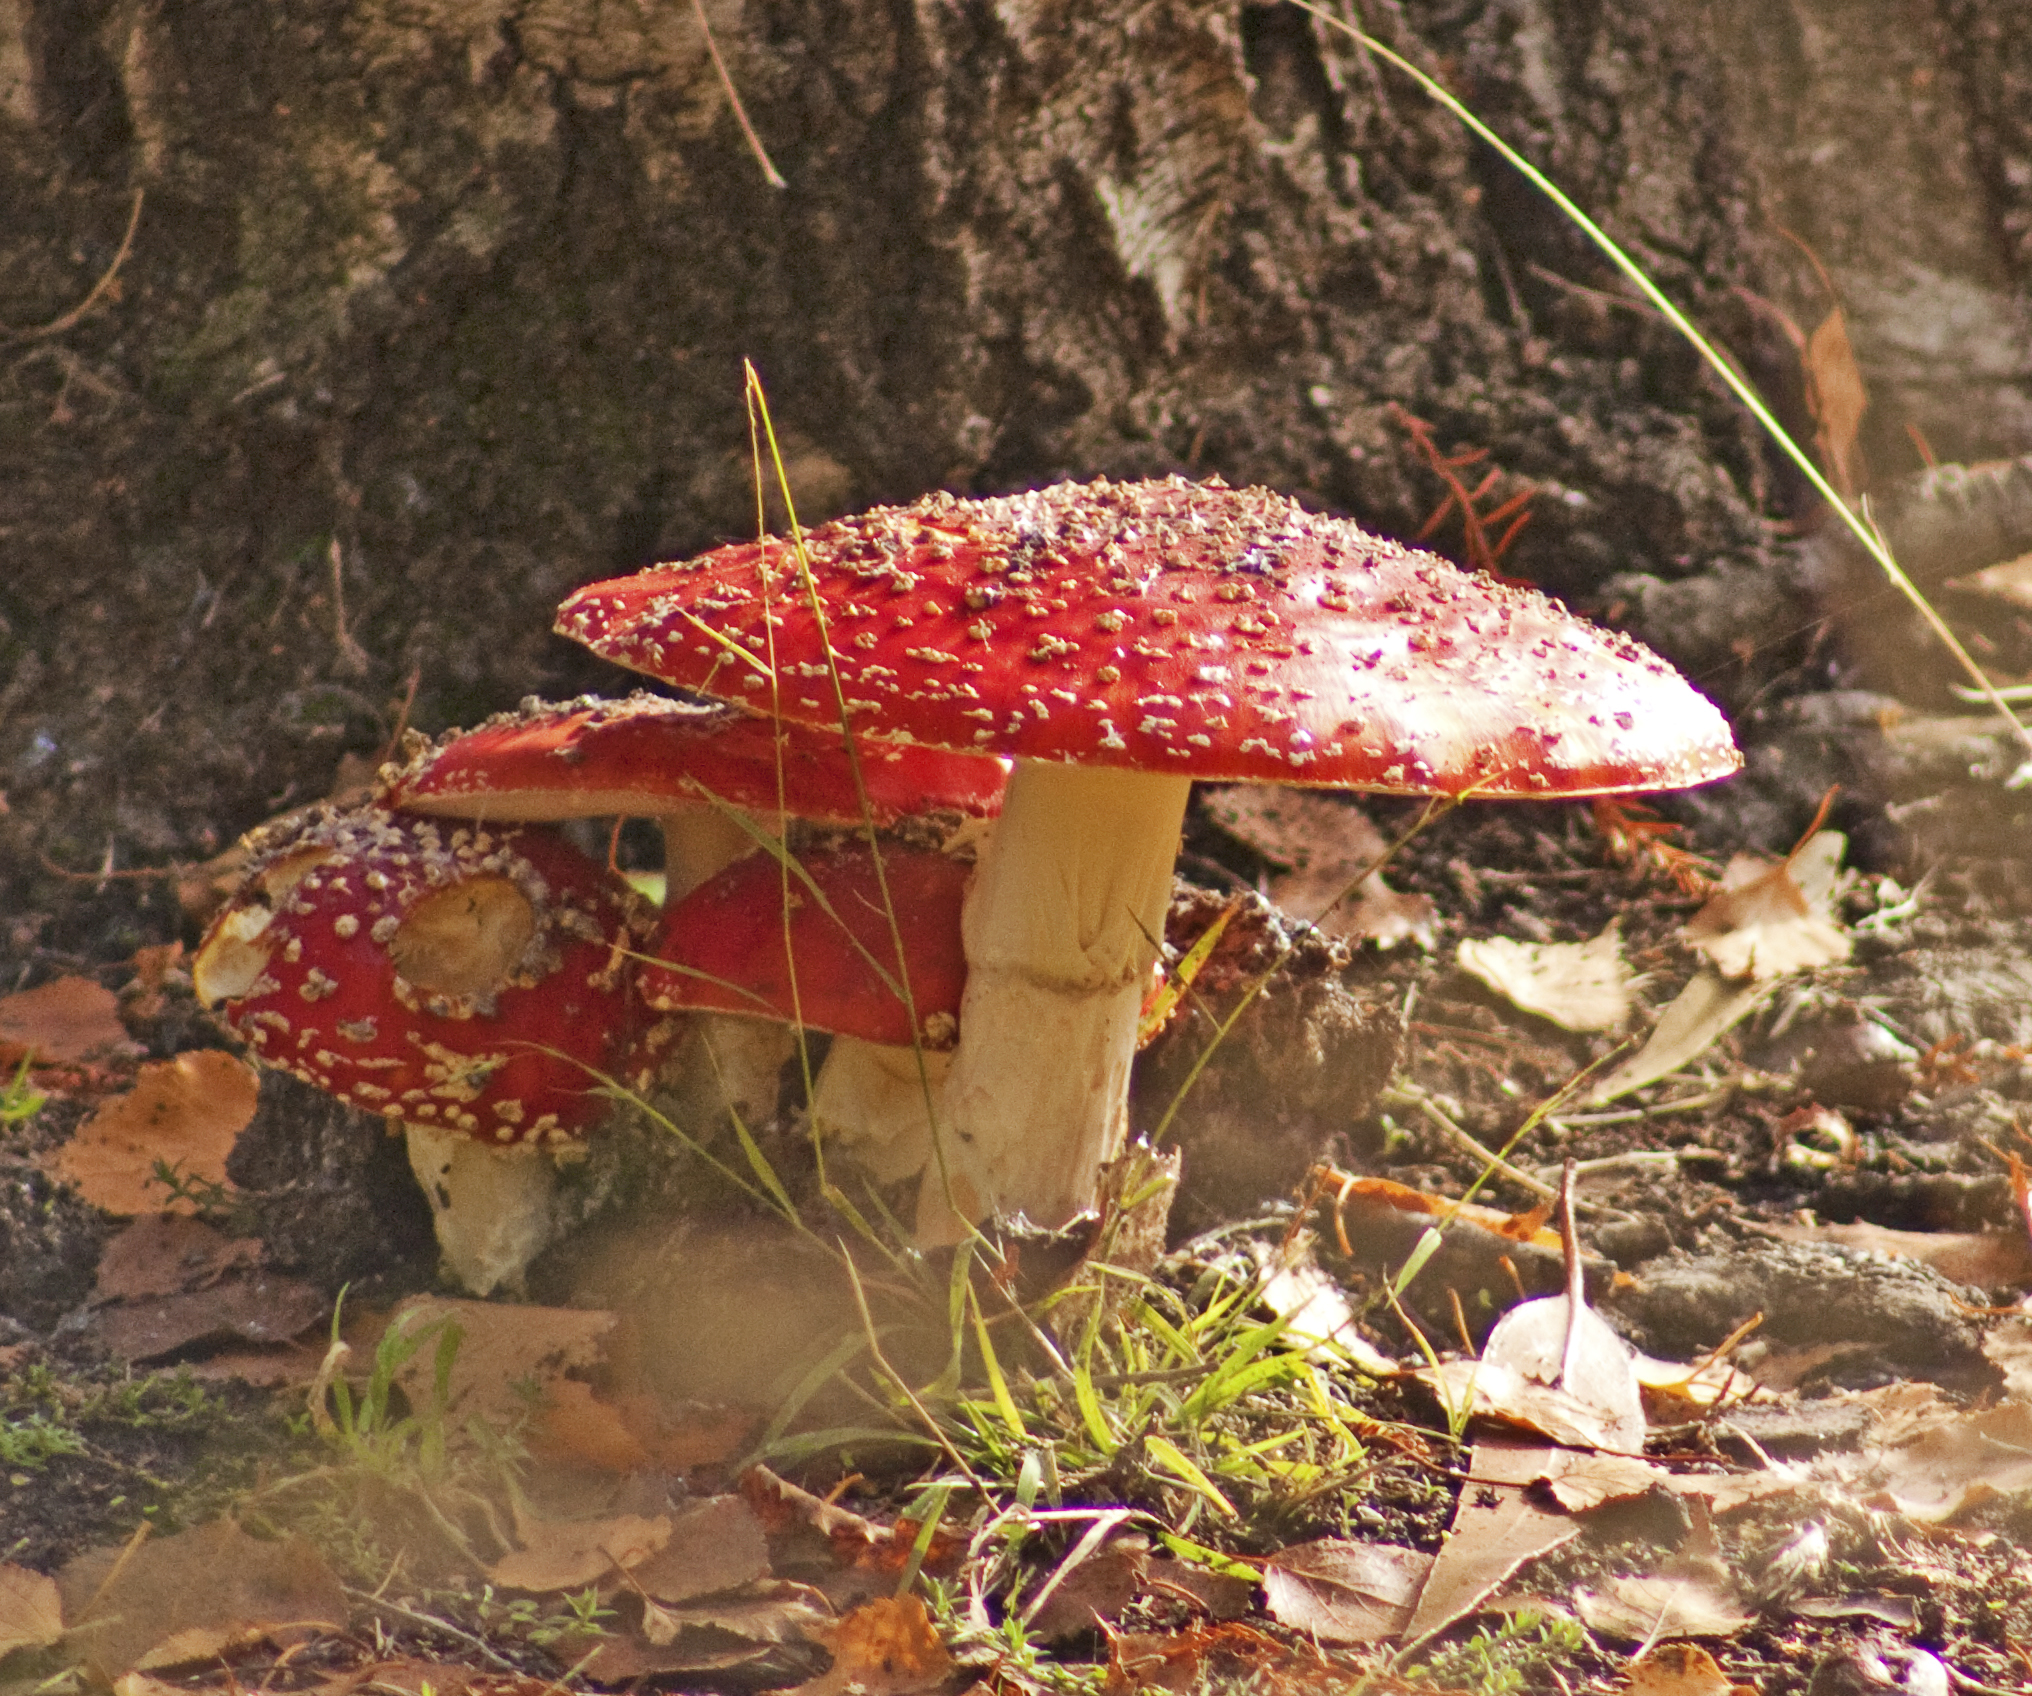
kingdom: Fungi
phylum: Basidiomycota
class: Agaricomycetes
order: Agaricales
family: Amanitaceae
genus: Amanita
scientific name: Amanita muscaria
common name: Fly agaric
